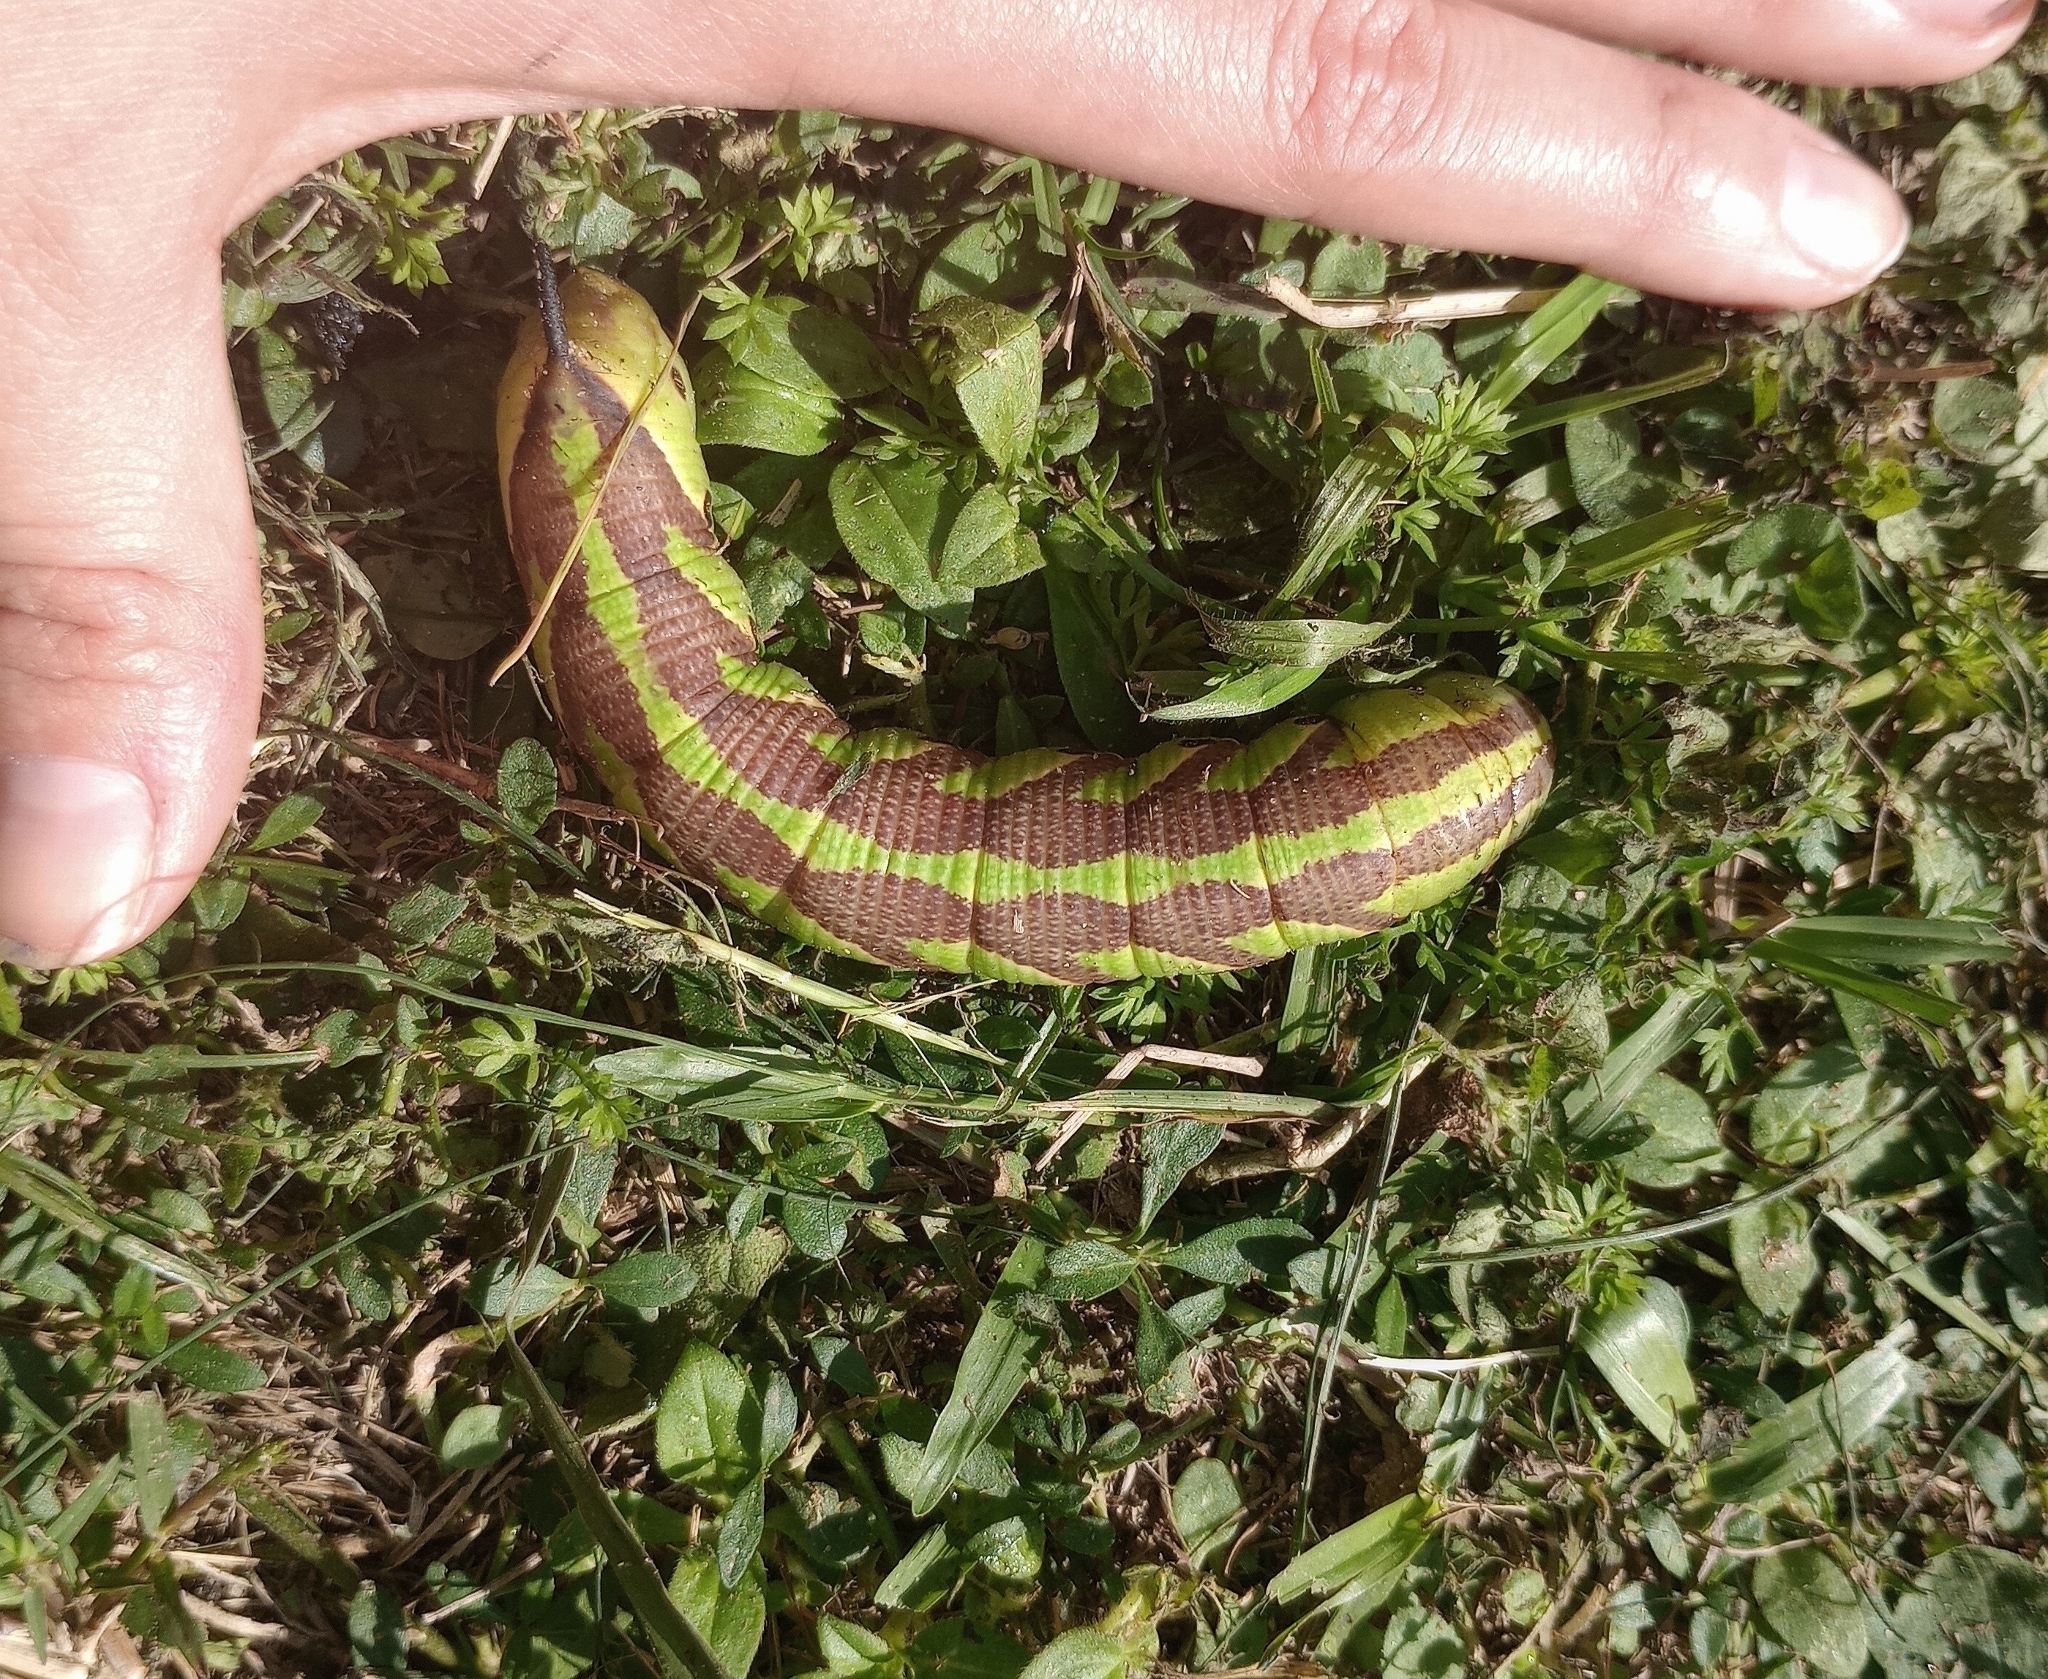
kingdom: Animalia
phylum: Arthropoda
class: Insecta
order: Lepidoptera
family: Sphingidae
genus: Agrius
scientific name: Agrius cingulata
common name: Pink-spotted hawkmoth
